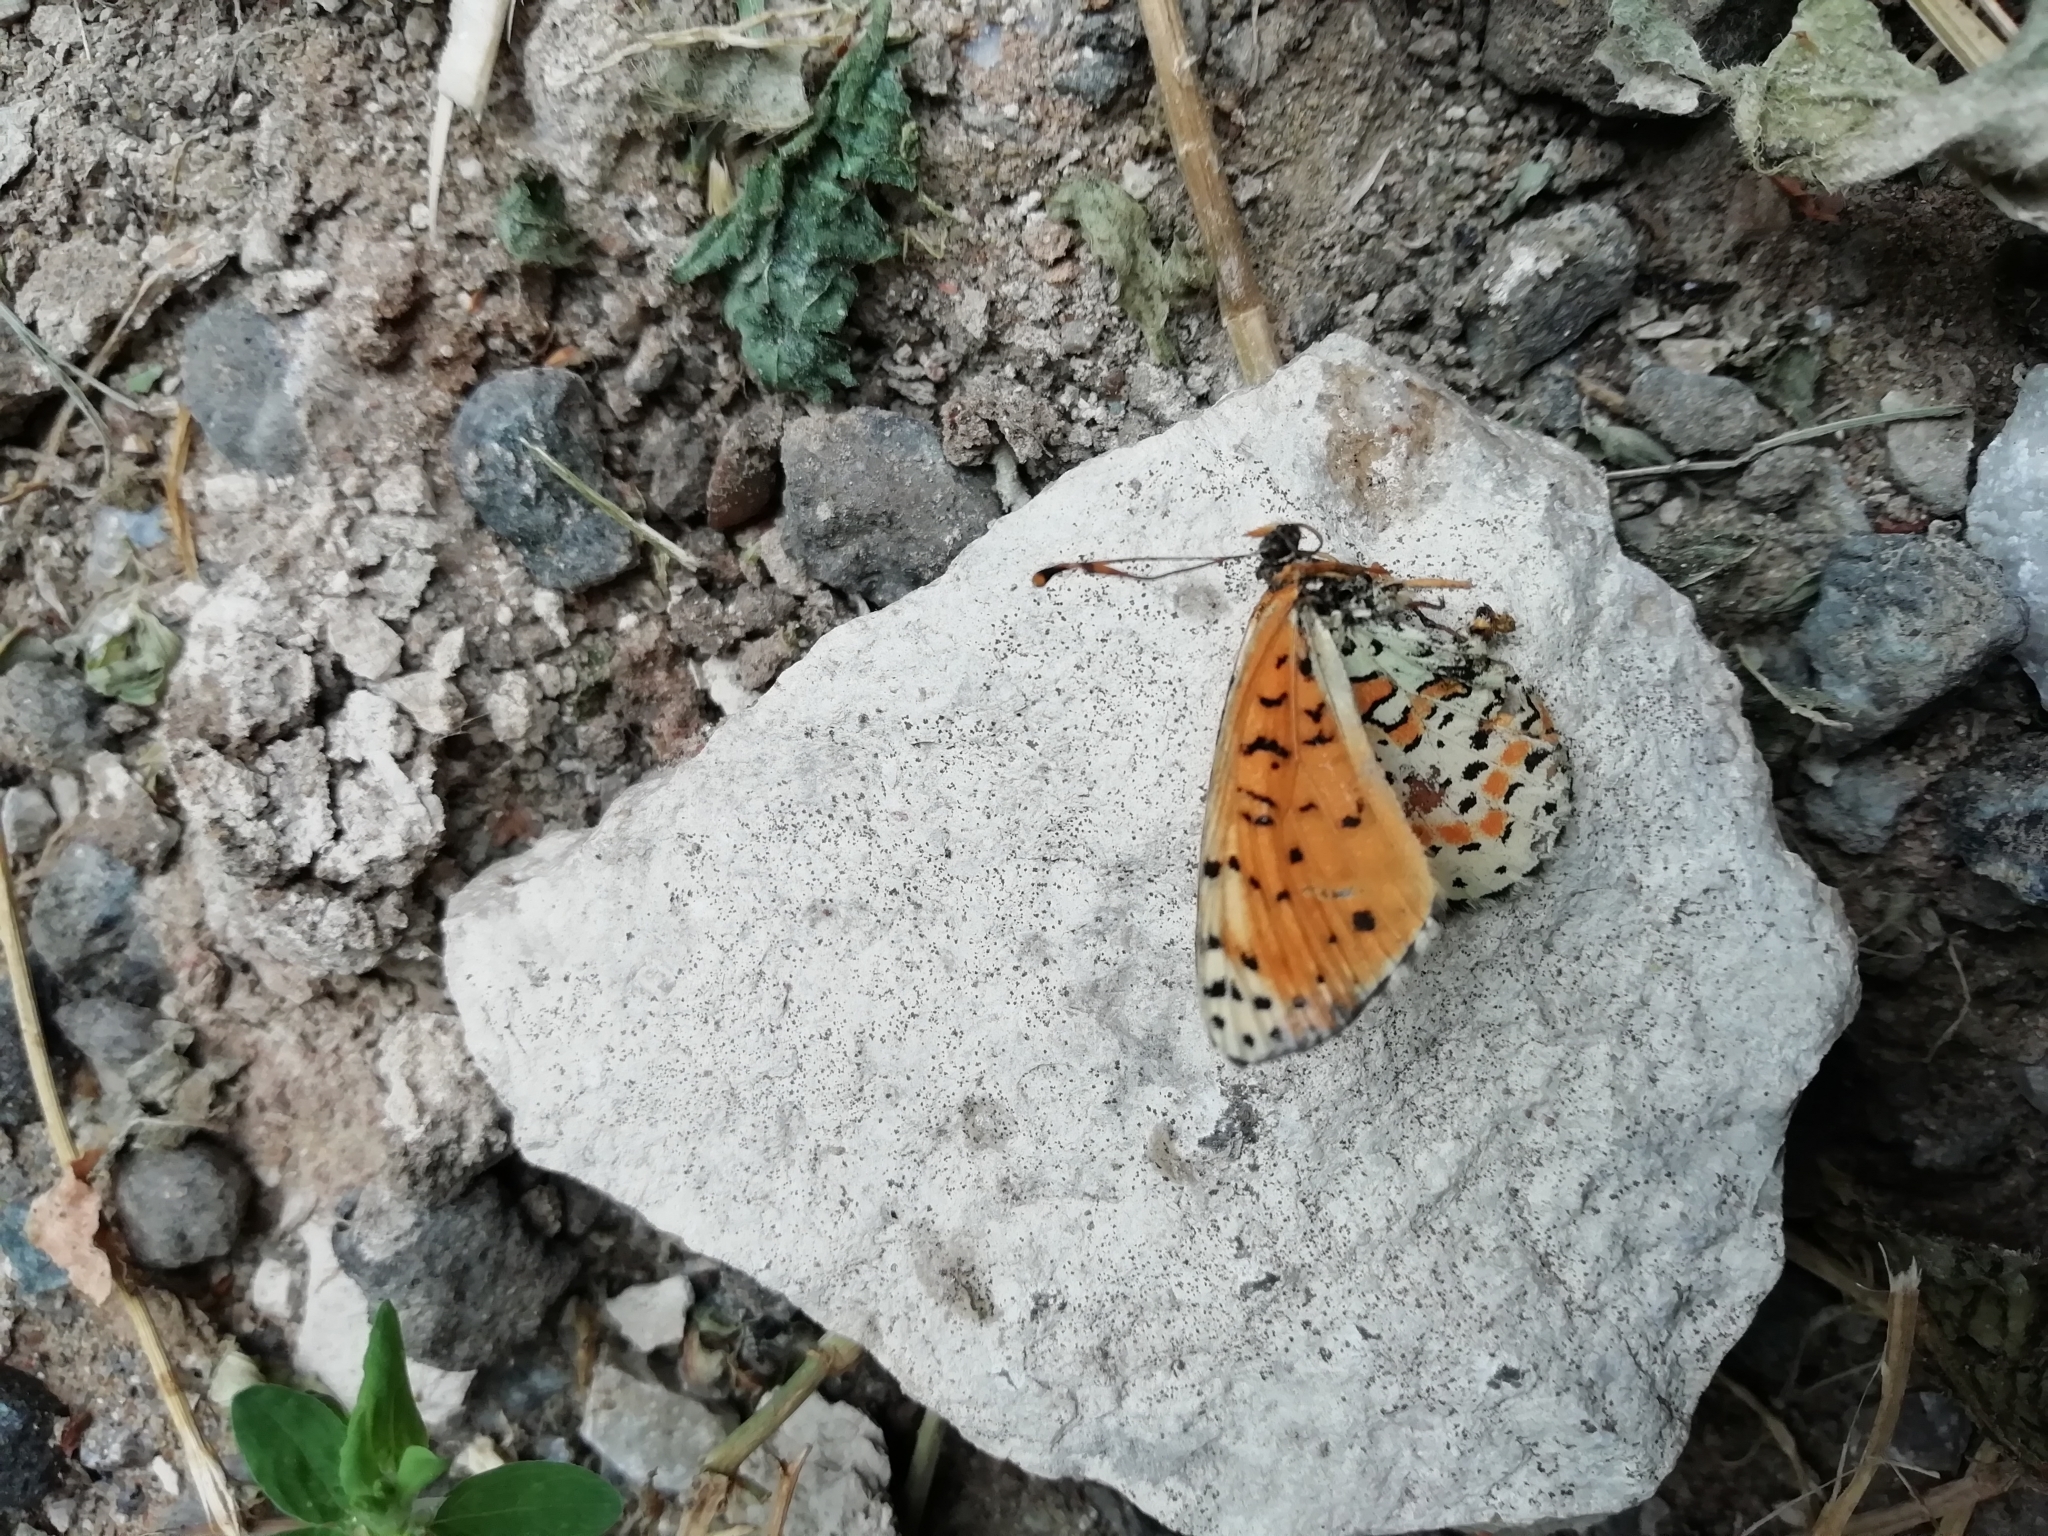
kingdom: Animalia
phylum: Arthropoda
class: Insecta
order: Lepidoptera
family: Nymphalidae
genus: Melitaea
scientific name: Melitaea didyma
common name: Spotted fritillary
